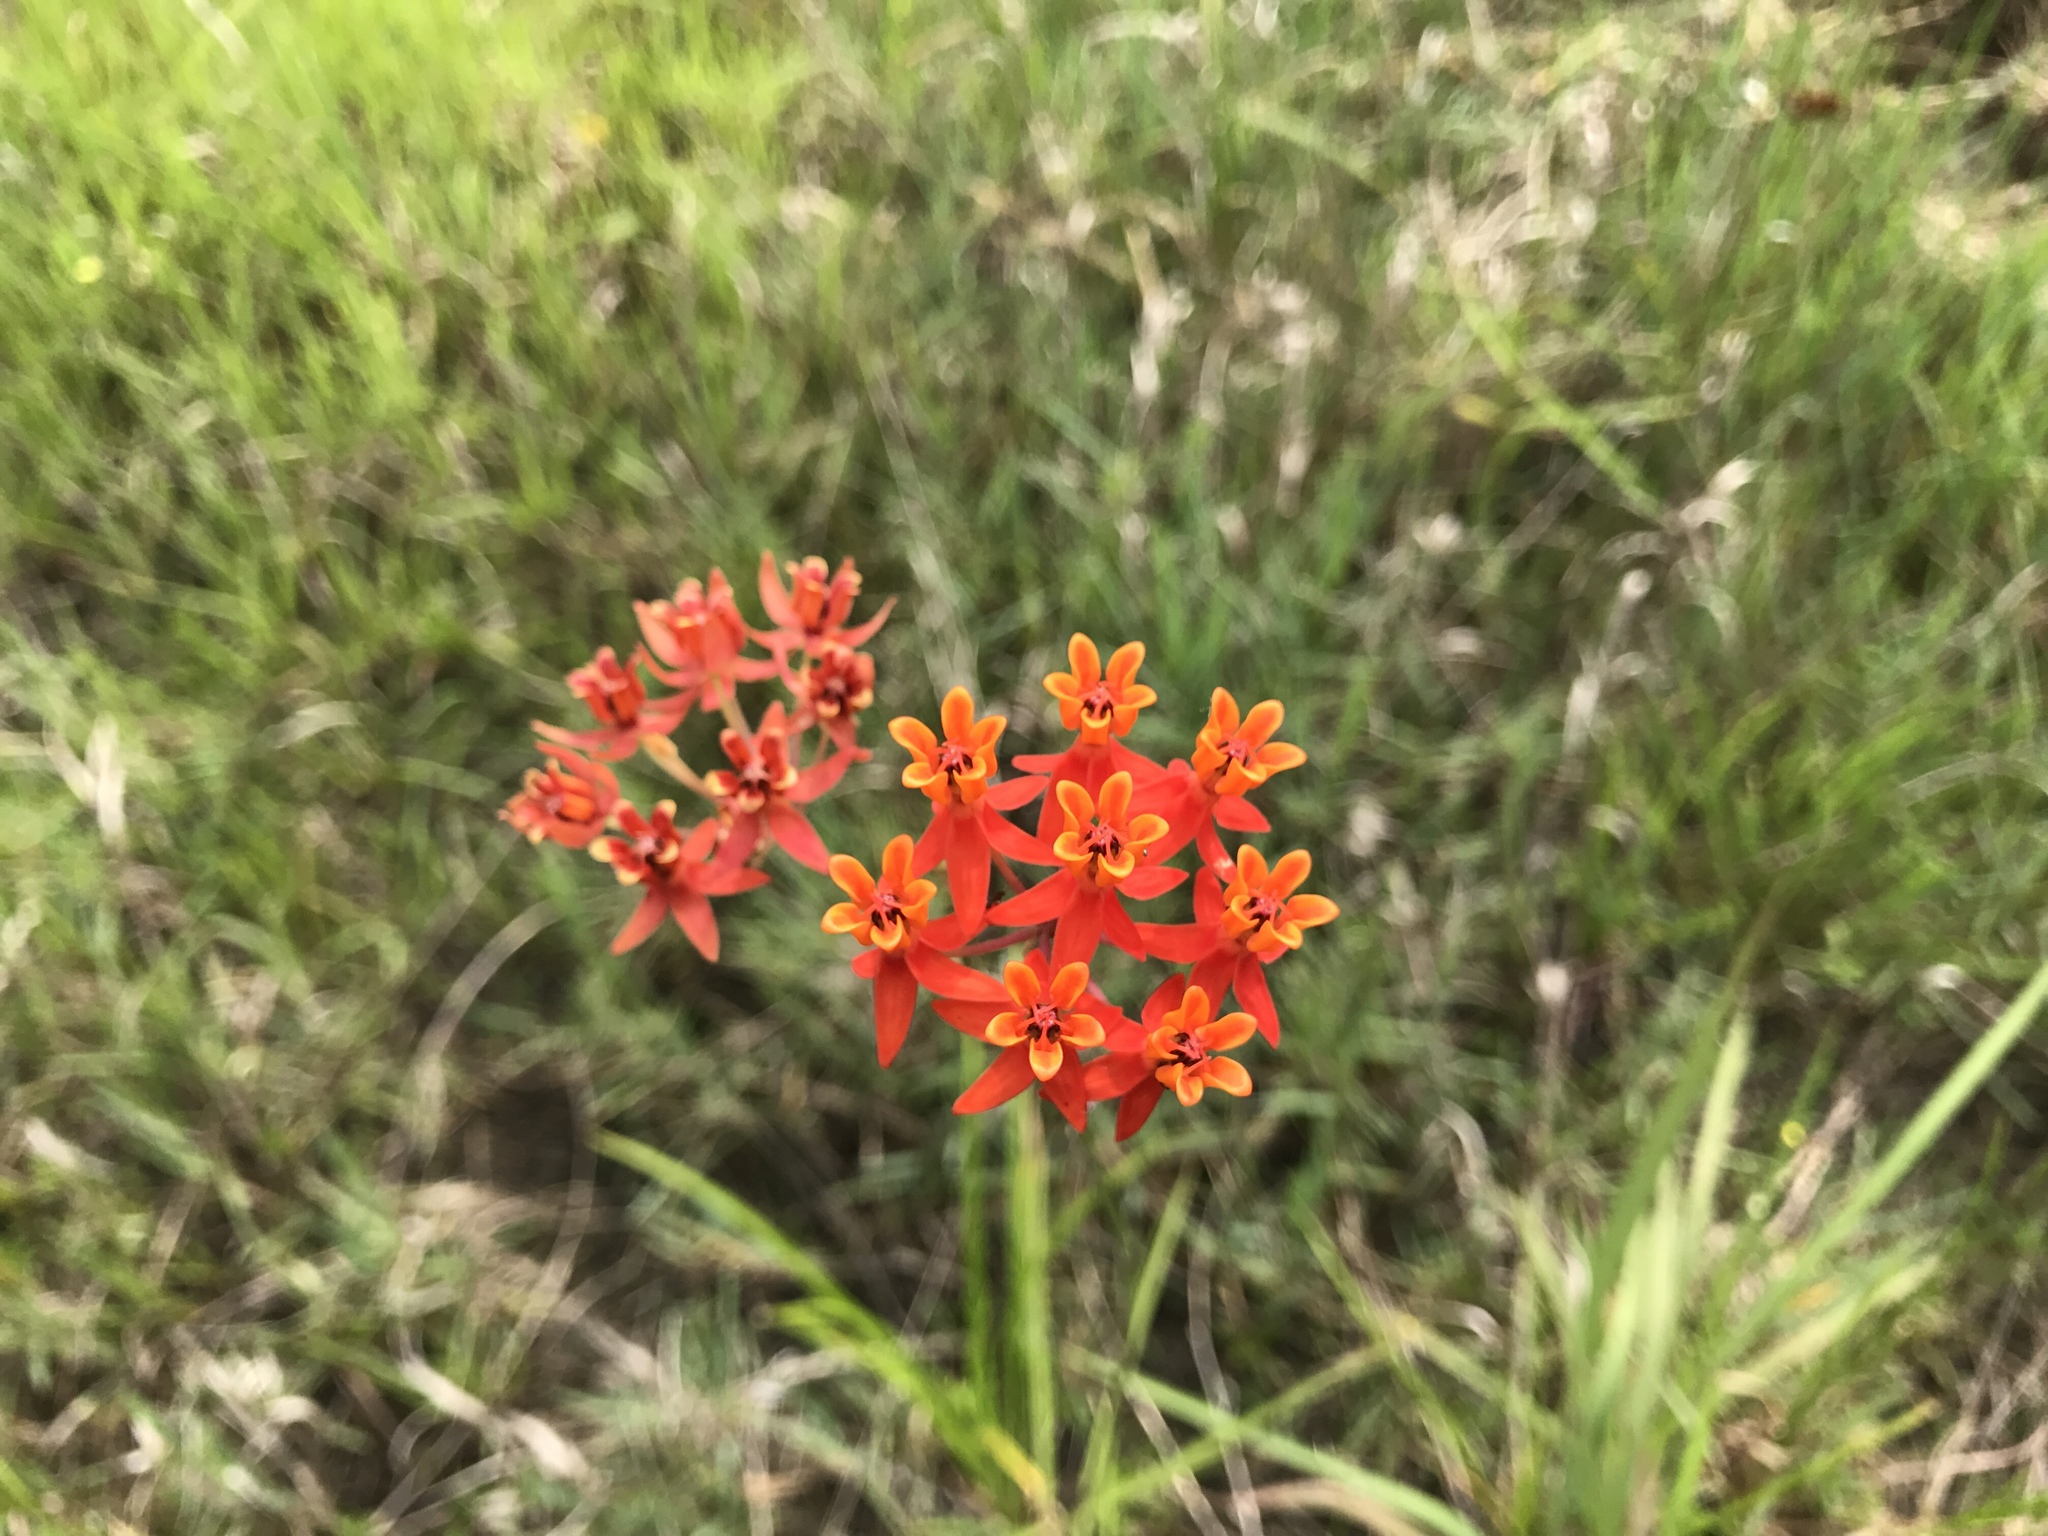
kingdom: Plantae
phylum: Tracheophyta
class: Magnoliopsida
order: Gentianales
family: Apocynaceae
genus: Asclepias
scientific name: Asclepias lanceolata
